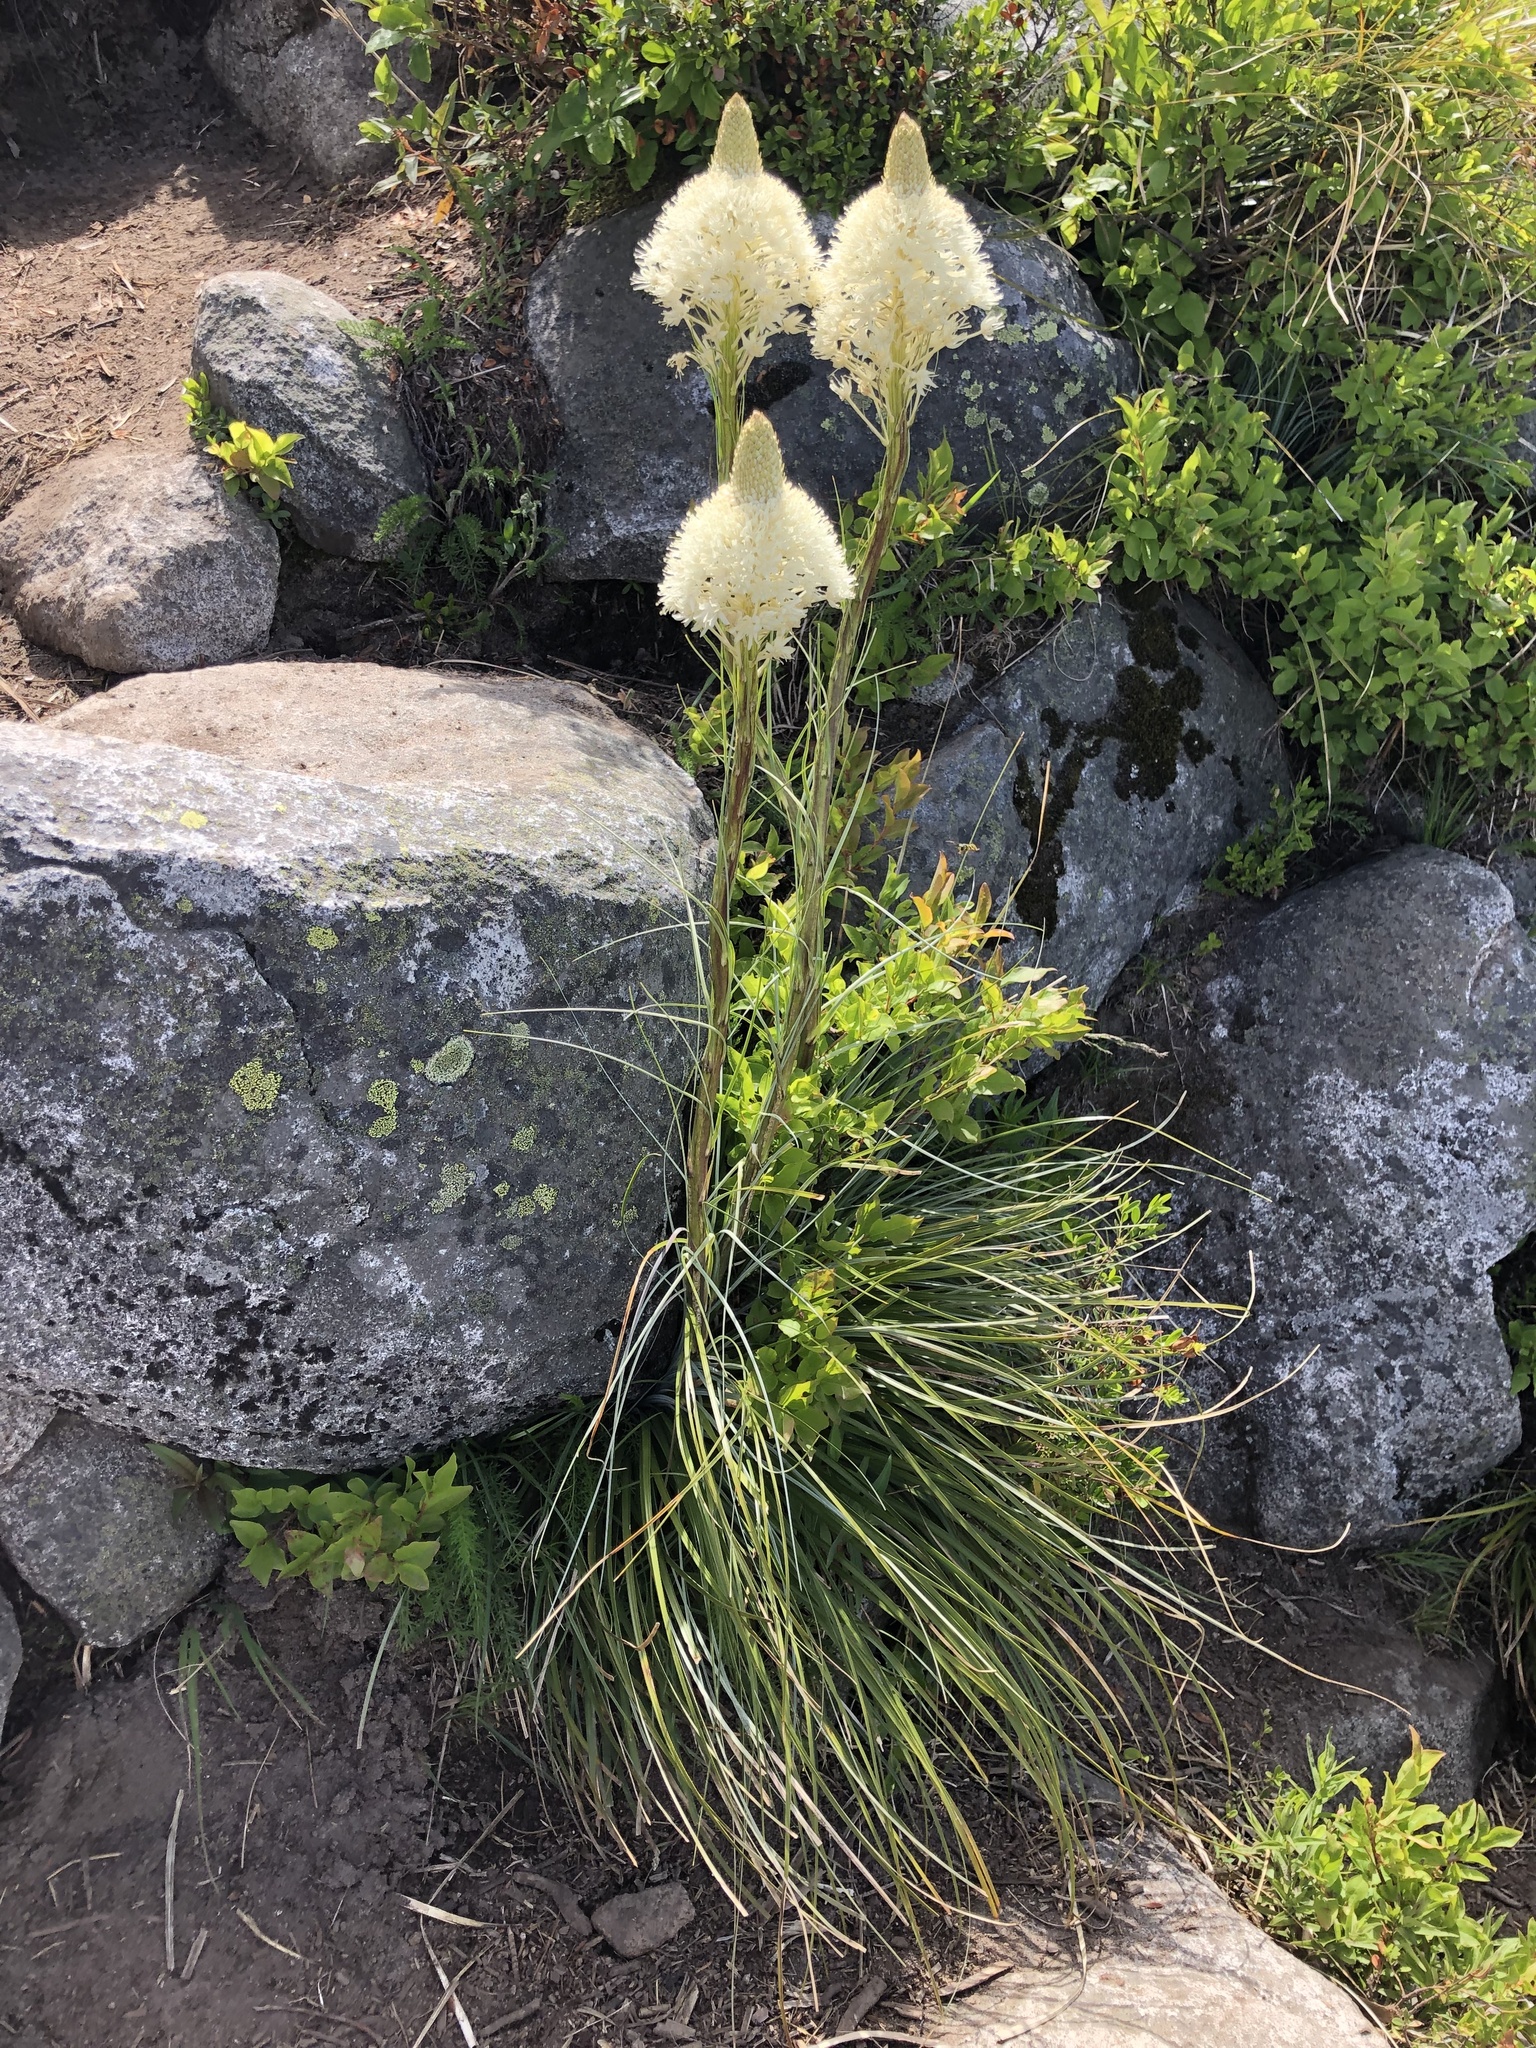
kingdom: Plantae
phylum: Tracheophyta
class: Liliopsida
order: Liliales
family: Melanthiaceae
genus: Xerophyllum
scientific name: Xerophyllum tenax
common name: Bear-grass
